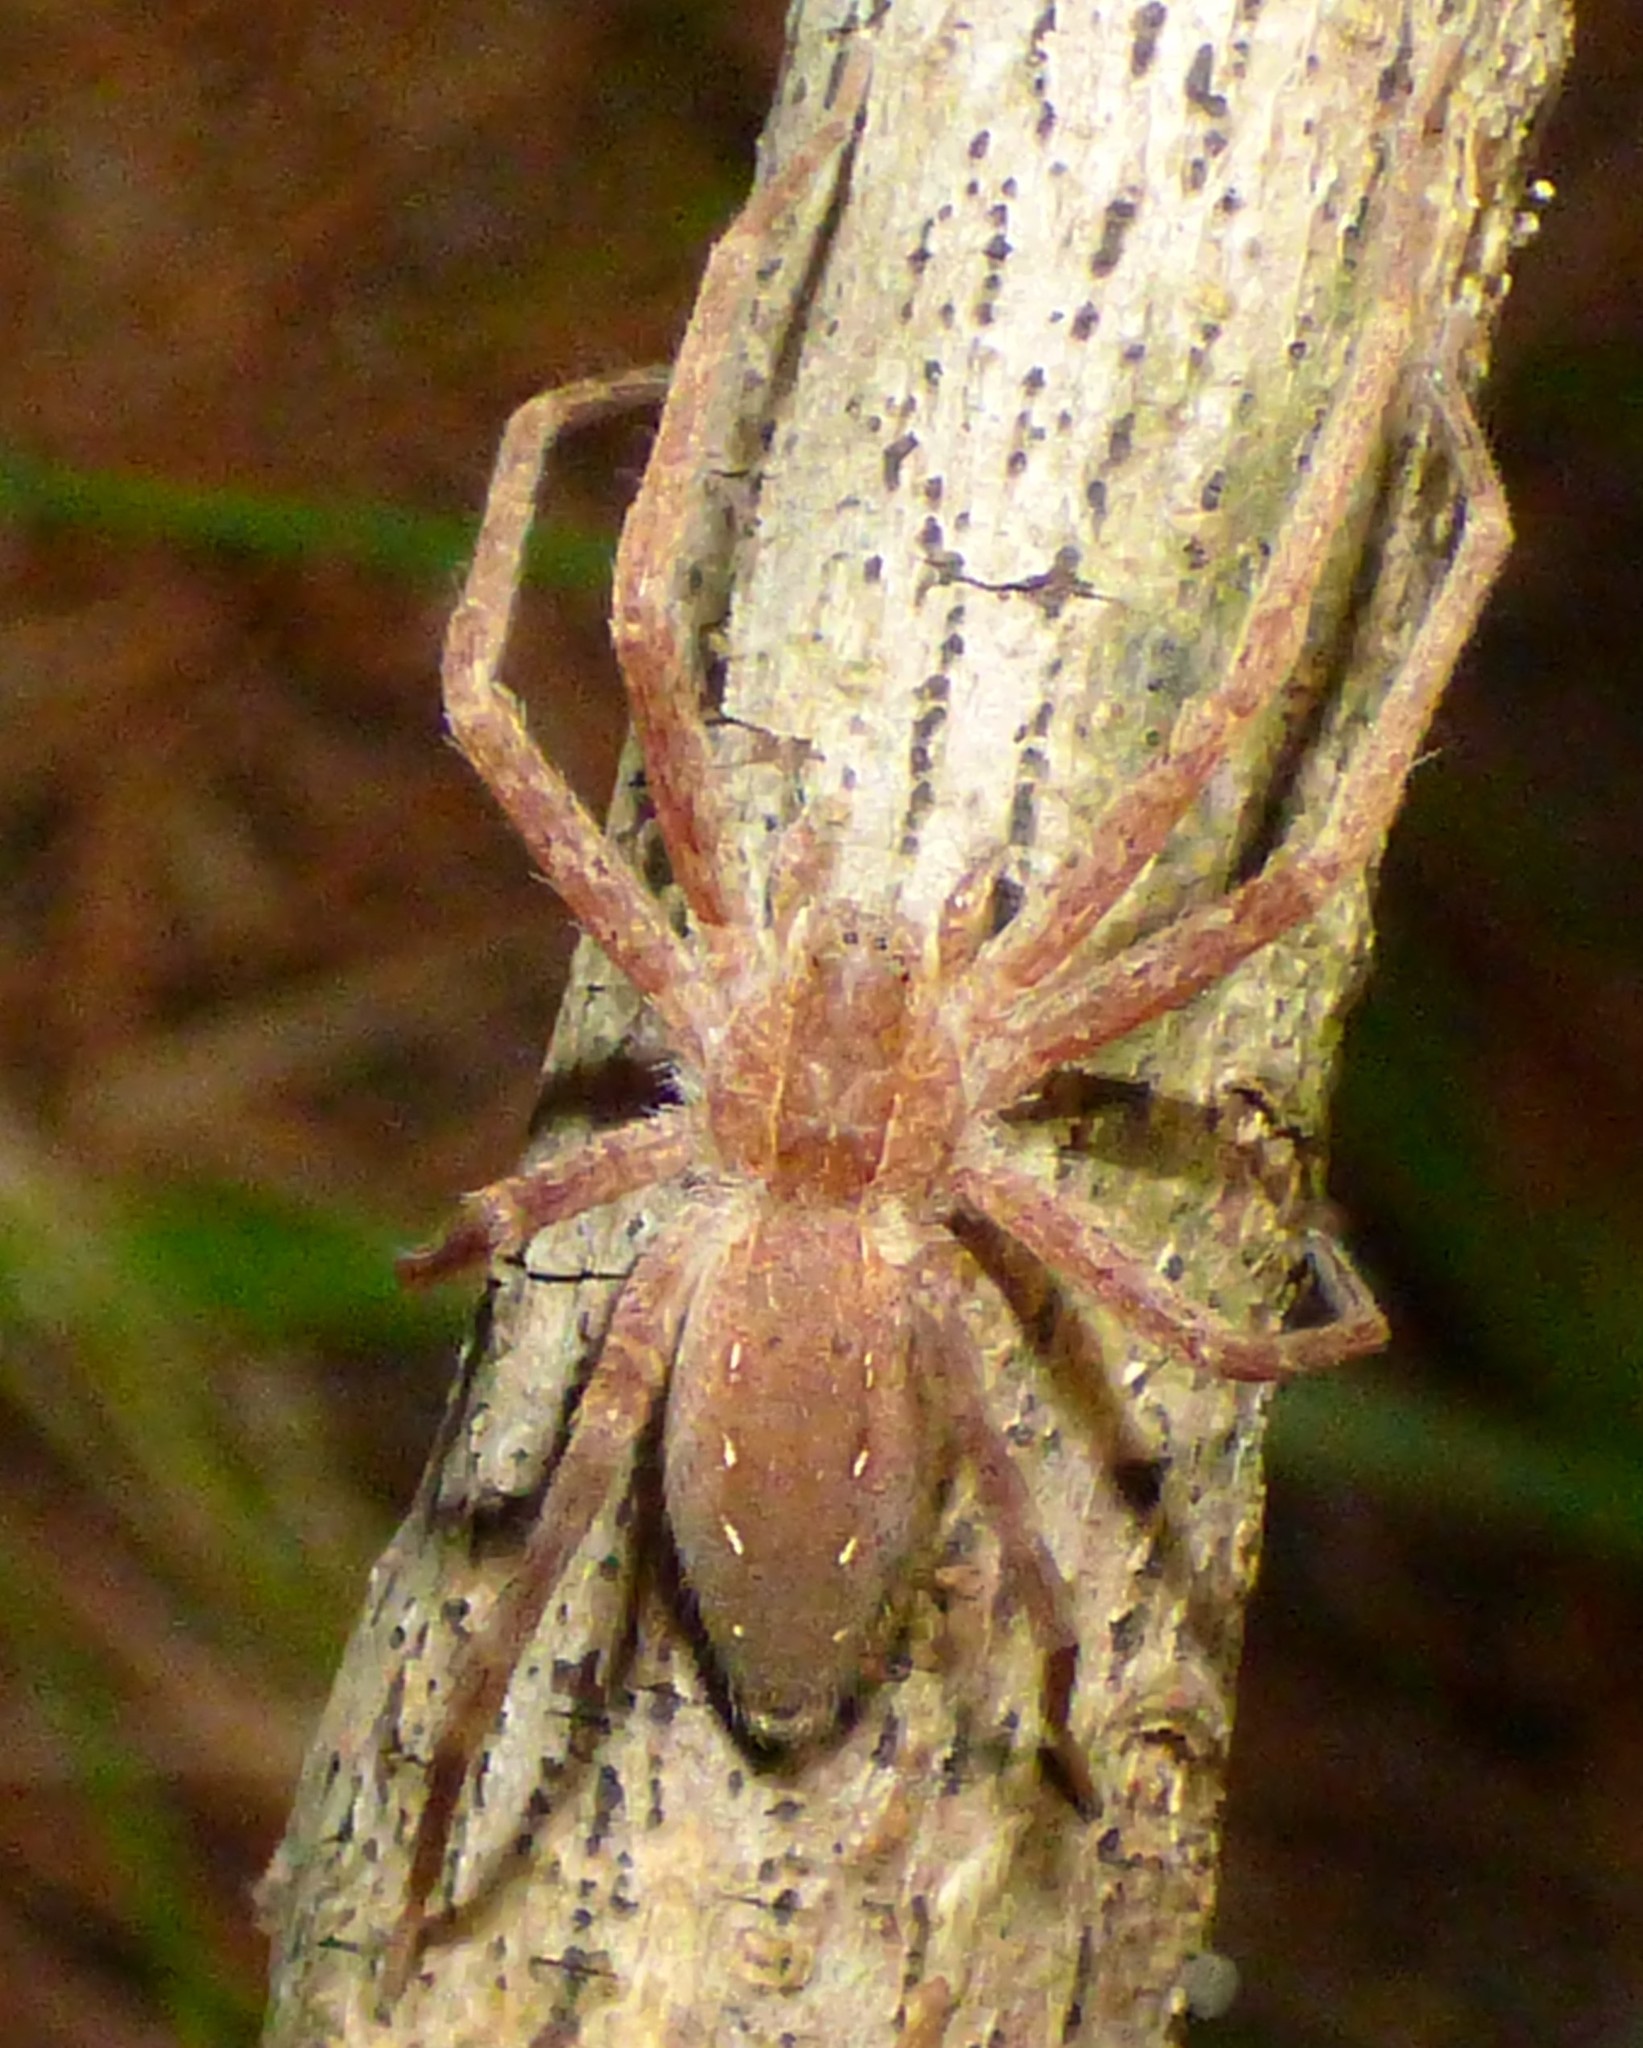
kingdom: Animalia
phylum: Arthropoda
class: Arachnida
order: Araneae
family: Pisauridae
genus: Pisaurina
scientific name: Pisaurina mira
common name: American nursery web spider
